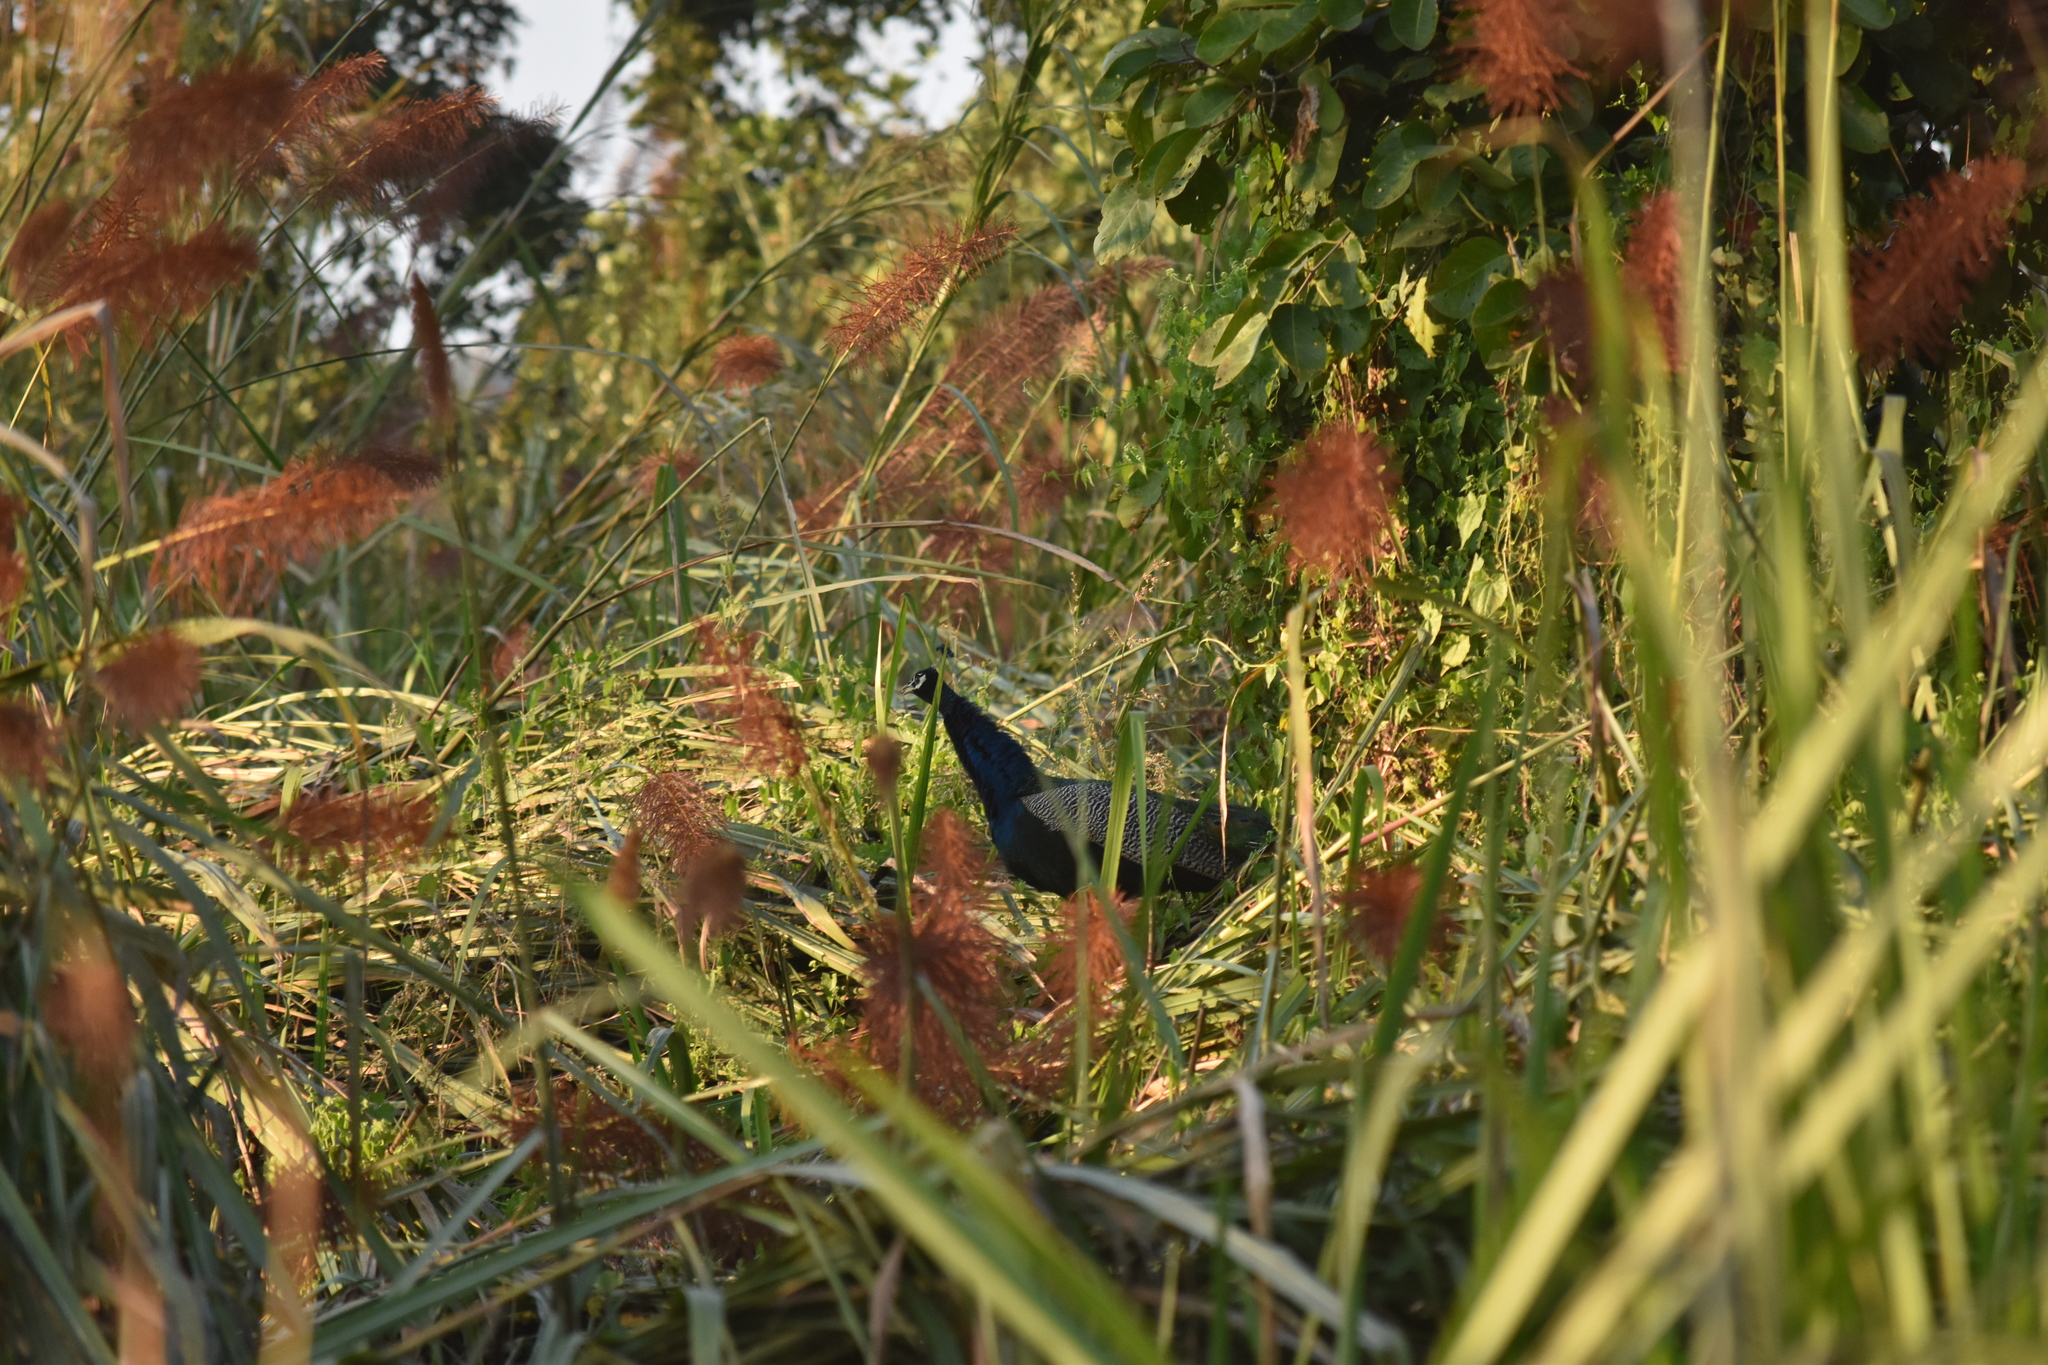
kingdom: Animalia
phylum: Chordata
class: Aves
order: Galliformes
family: Phasianidae
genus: Pavo
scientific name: Pavo cristatus
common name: Indian peafowl
